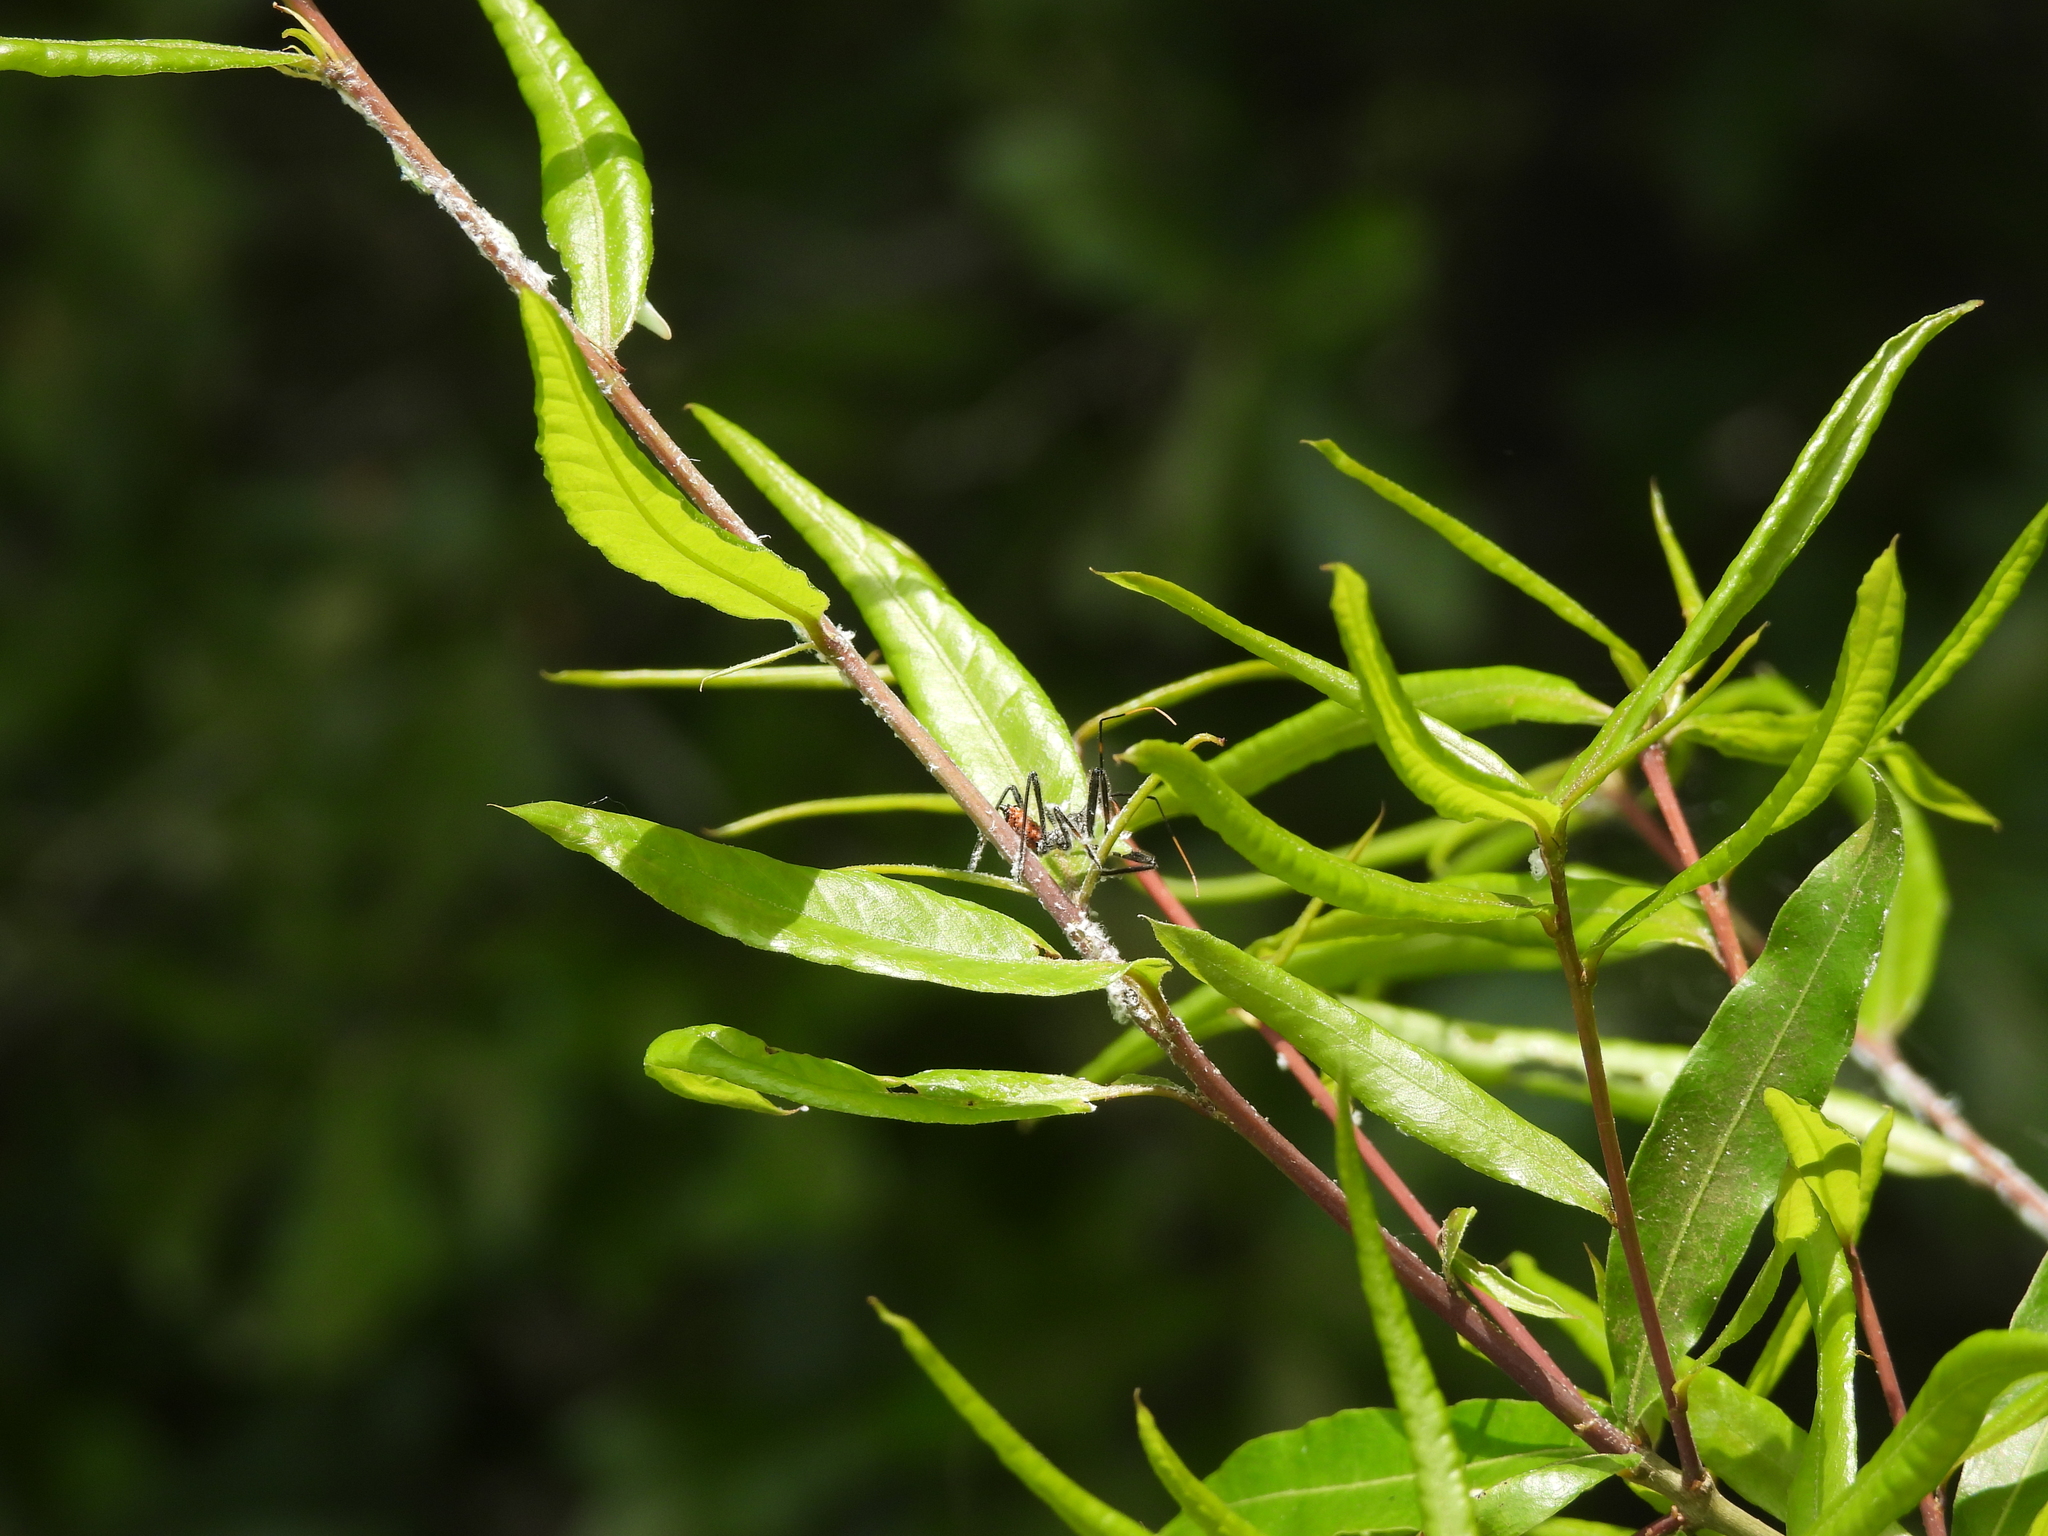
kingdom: Animalia
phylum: Arthropoda
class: Insecta
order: Hemiptera
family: Reduviidae
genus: Arilus
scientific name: Arilus cristatus
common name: North american wheel bug
